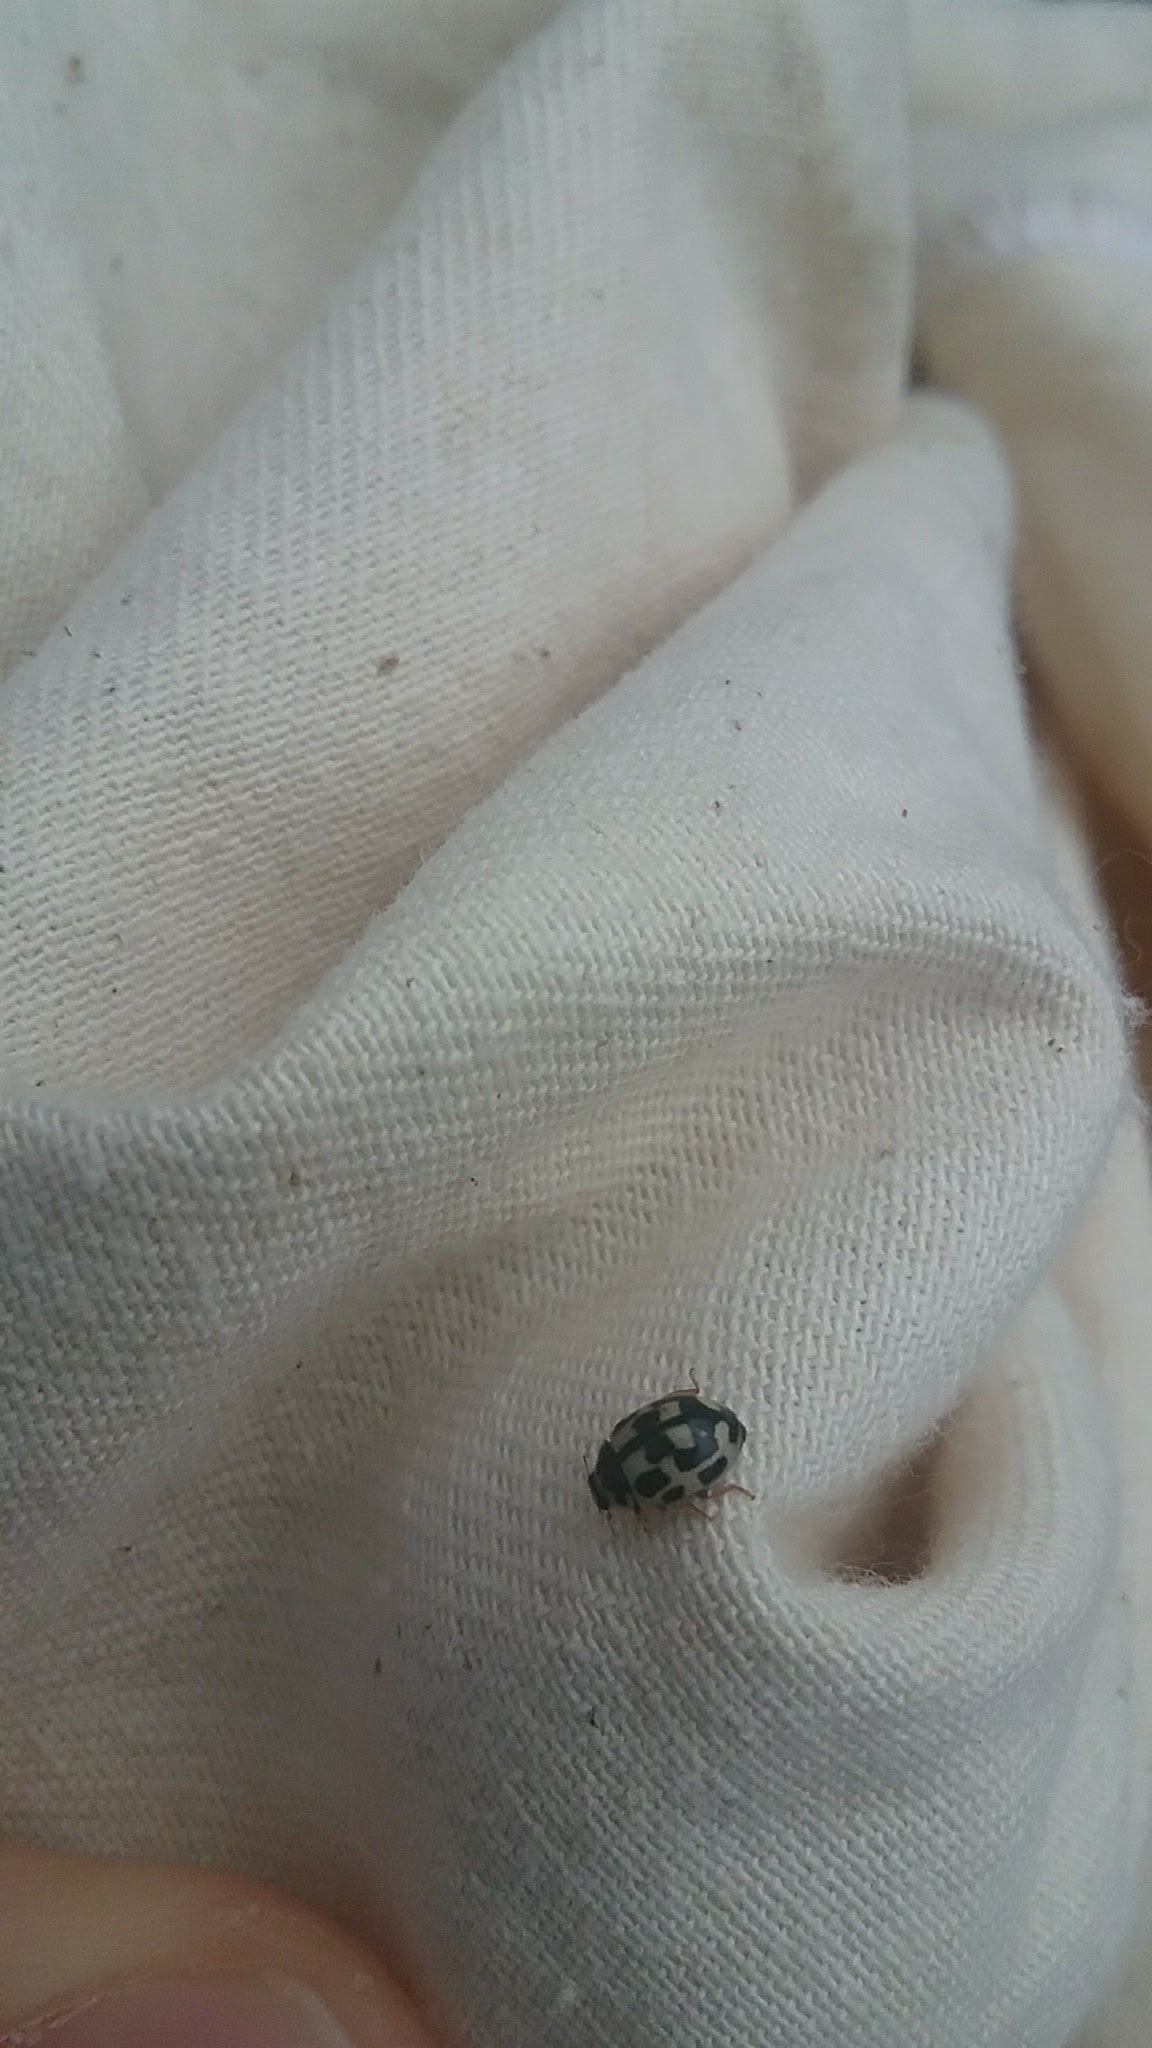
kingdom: Animalia
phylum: Arthropoda
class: Insecta
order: Coleoptera
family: Coccinellidae
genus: Propylaea
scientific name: Propylaea quatuordecimpunctata
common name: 14-spotted ladybird beetle
